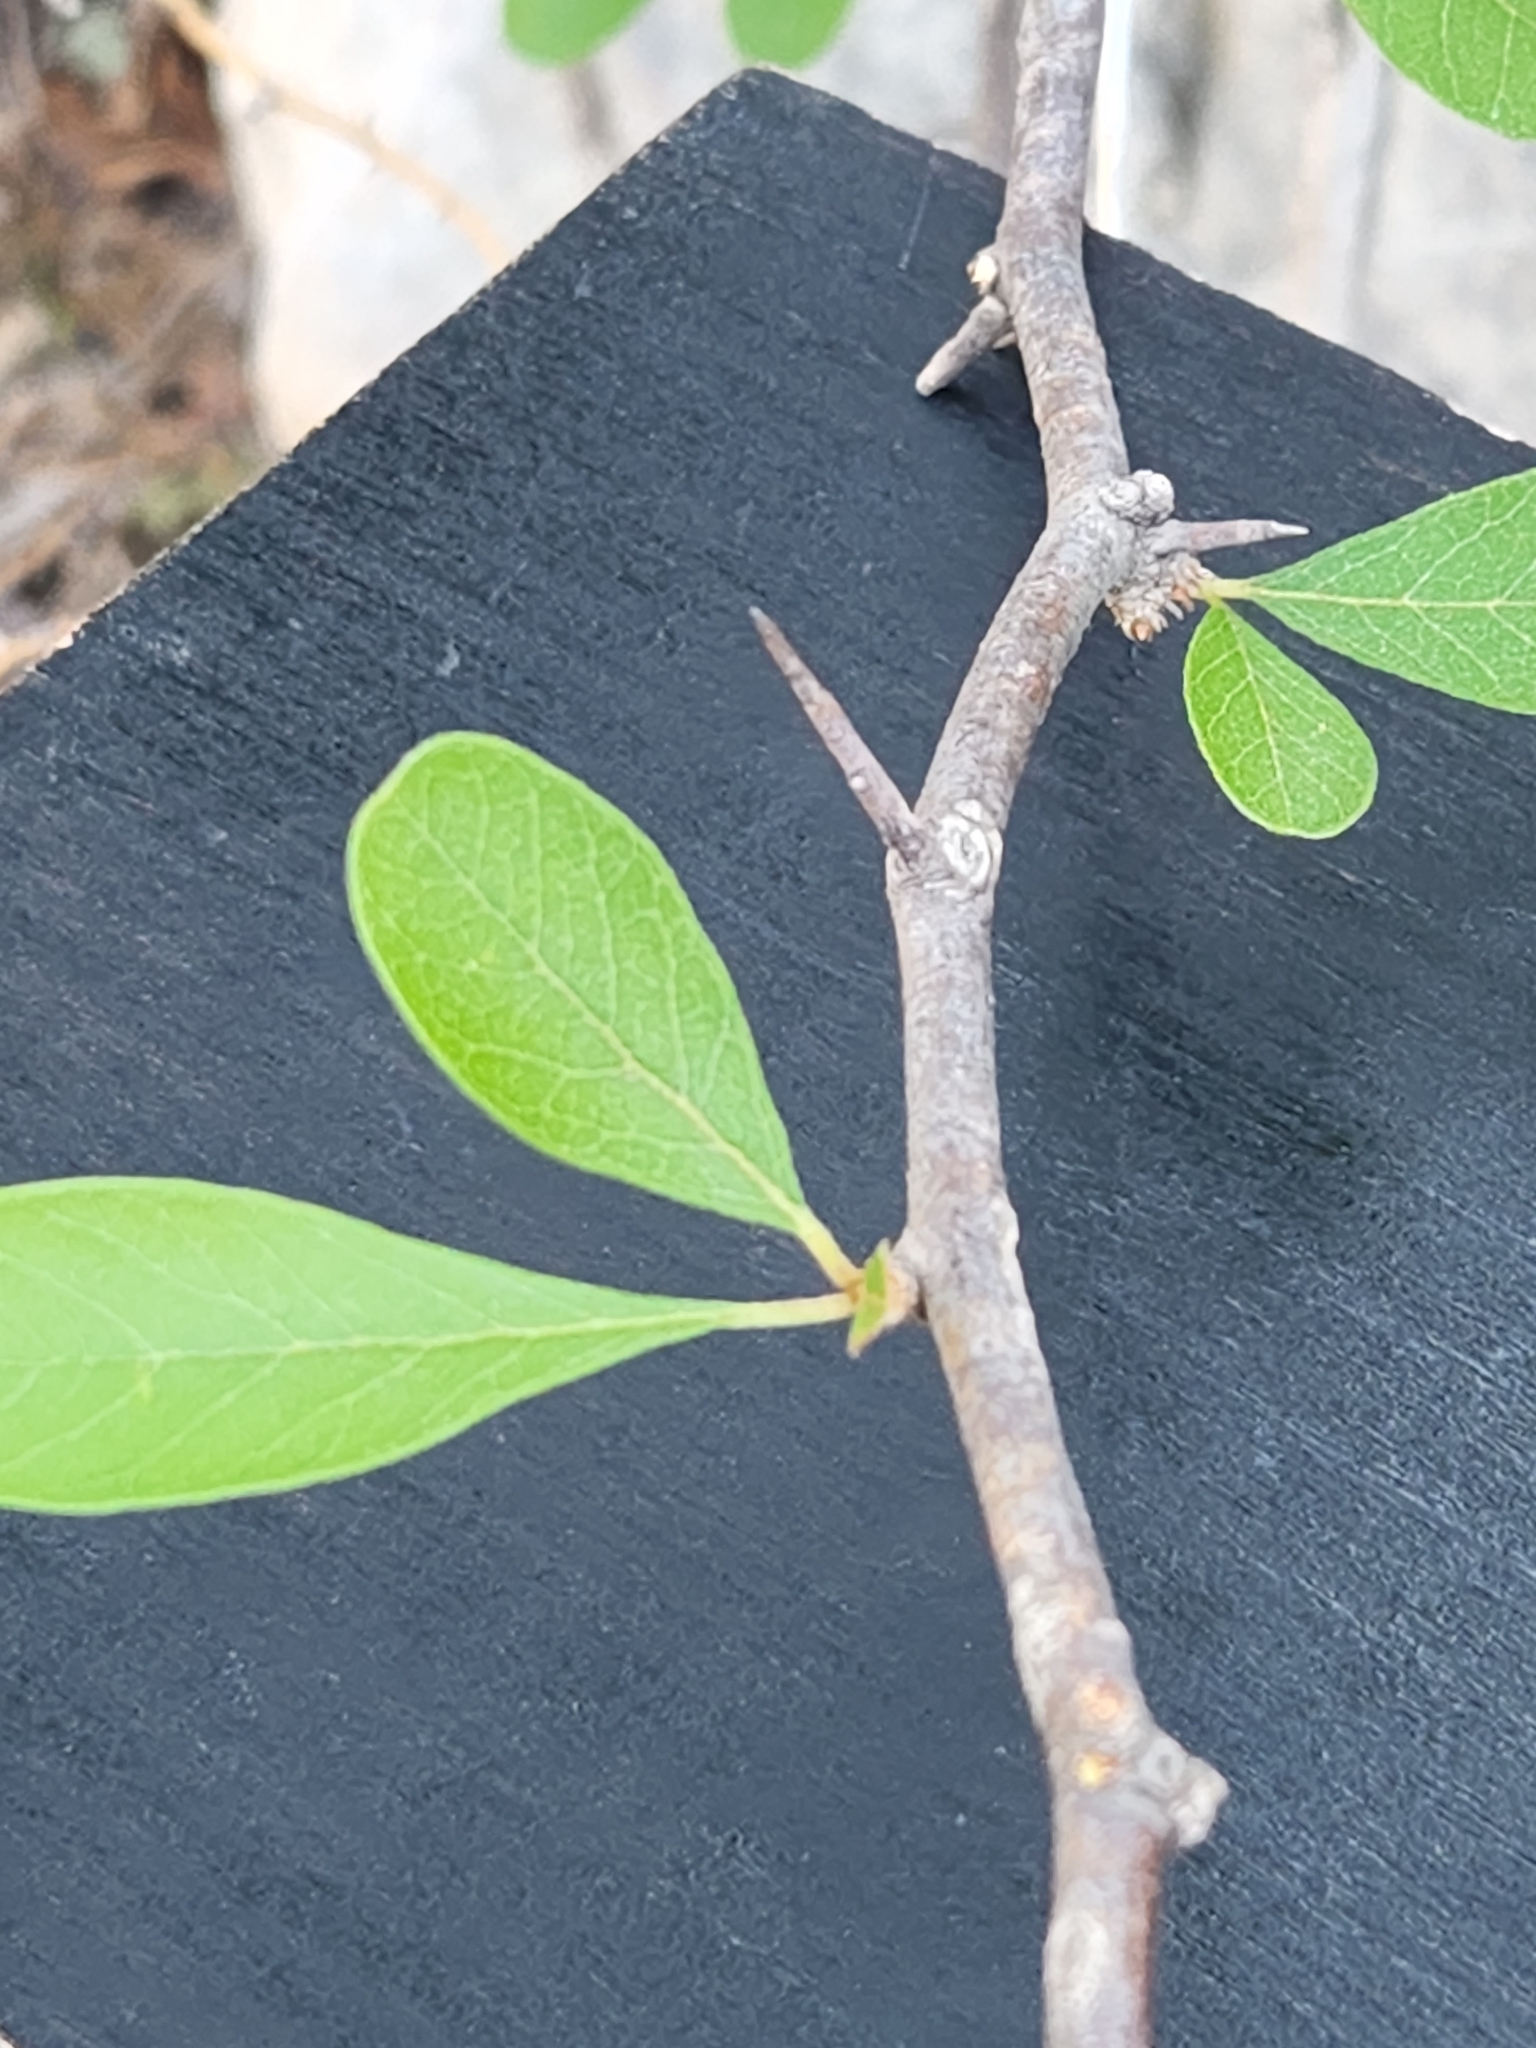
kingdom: Plantae
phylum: Tracheophyta
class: Magnoliopsida
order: Ericales
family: Sapotaceae
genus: Sideroxylon
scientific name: Sideroxylon lanuginosum
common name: Chittamwood
